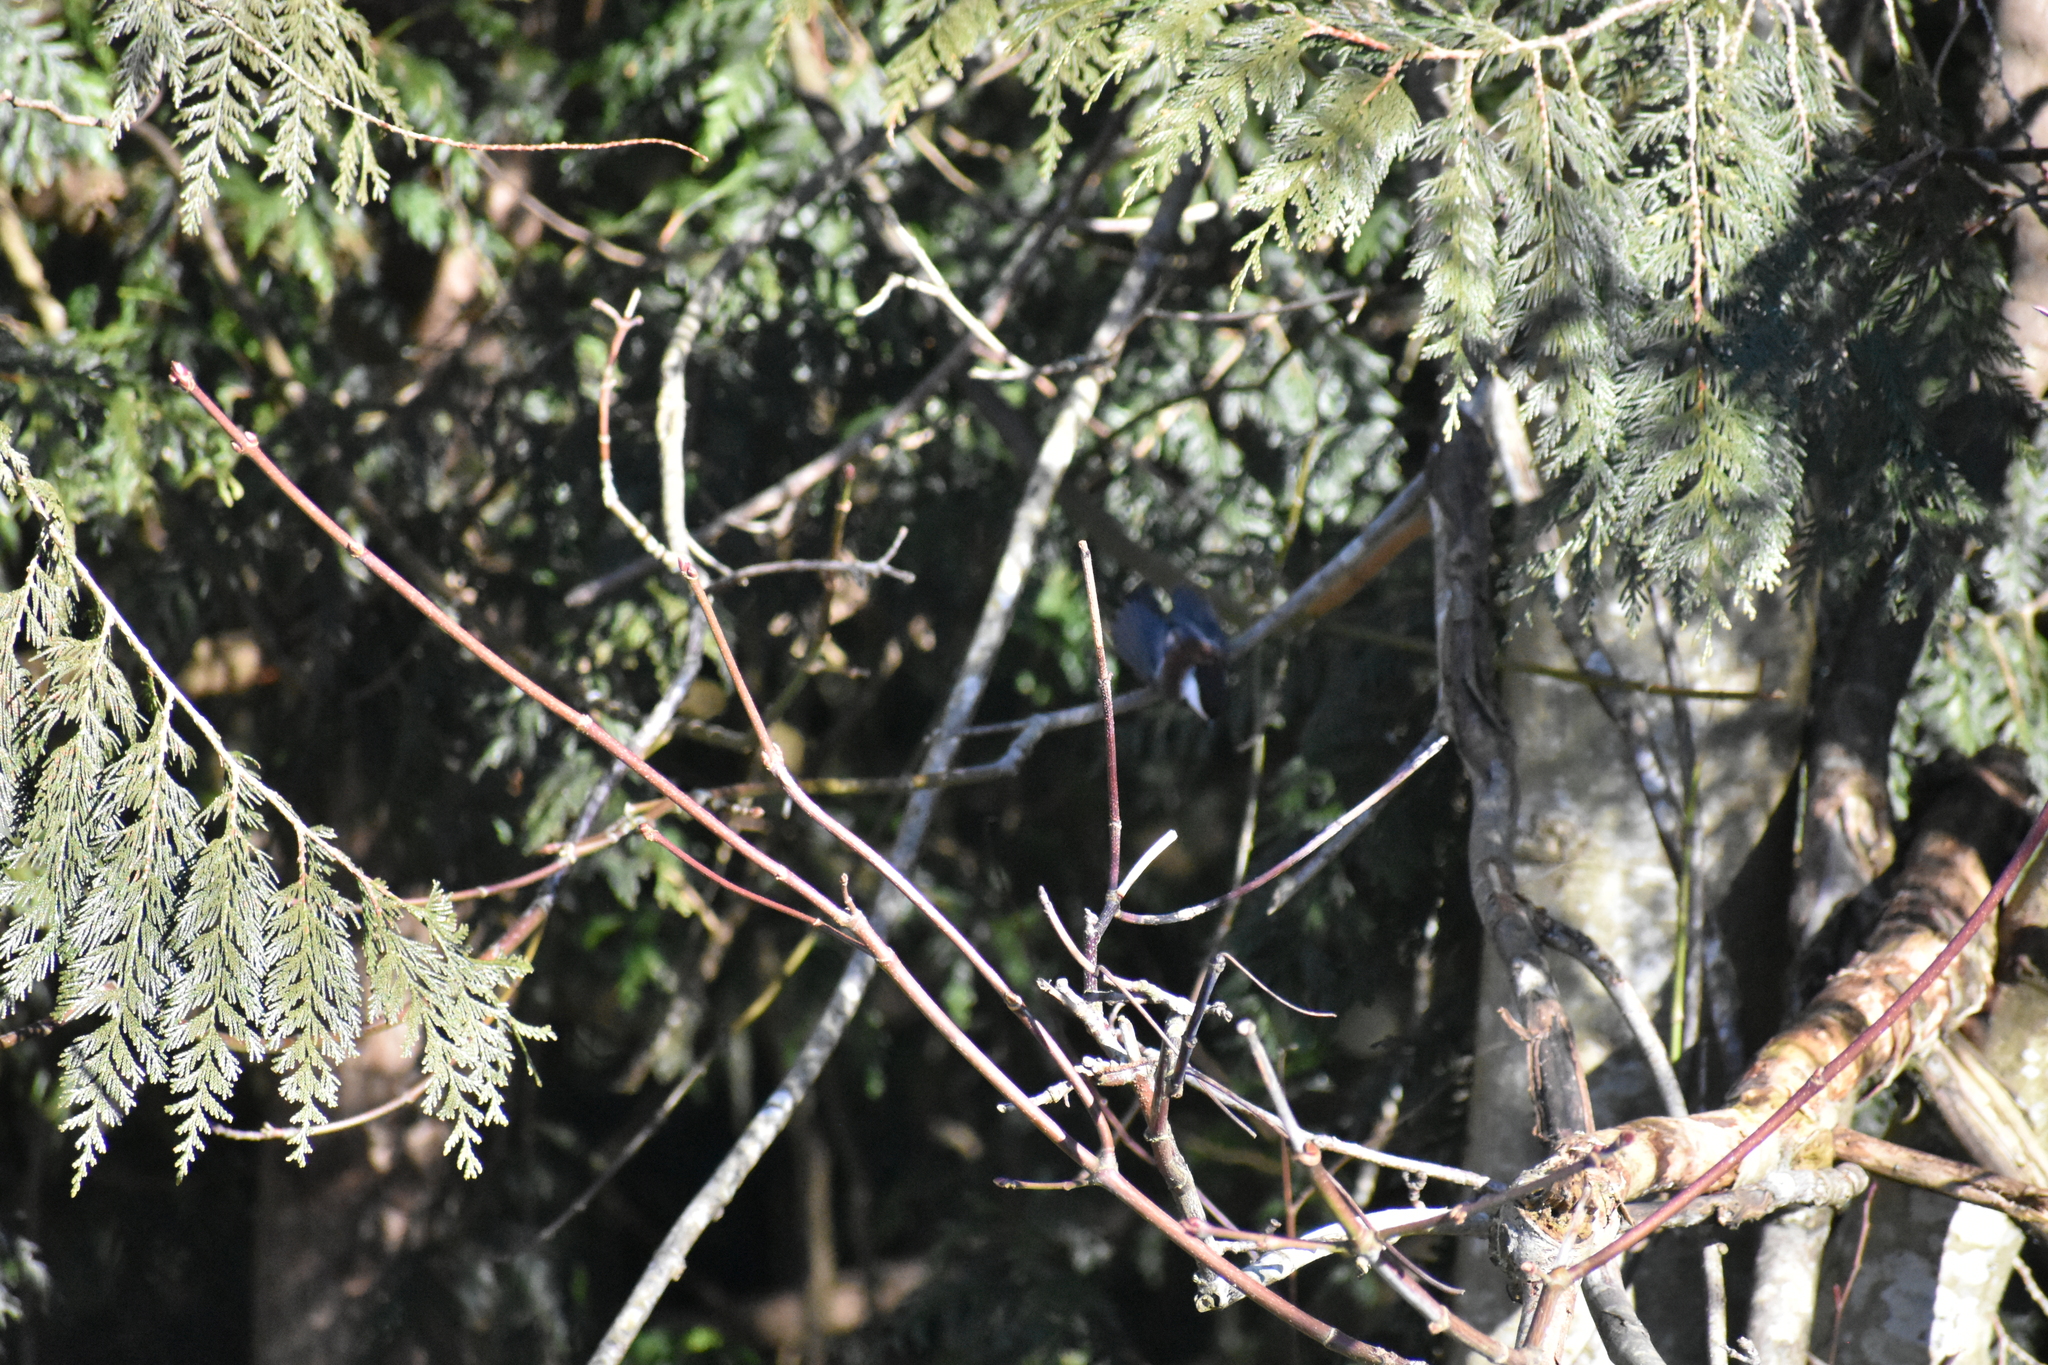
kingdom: Animalia
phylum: Chordata
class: Aves
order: Passeriformes
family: Paridae
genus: Poecile
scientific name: Poecile rufescens
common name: Chestnut-backed chickadee
